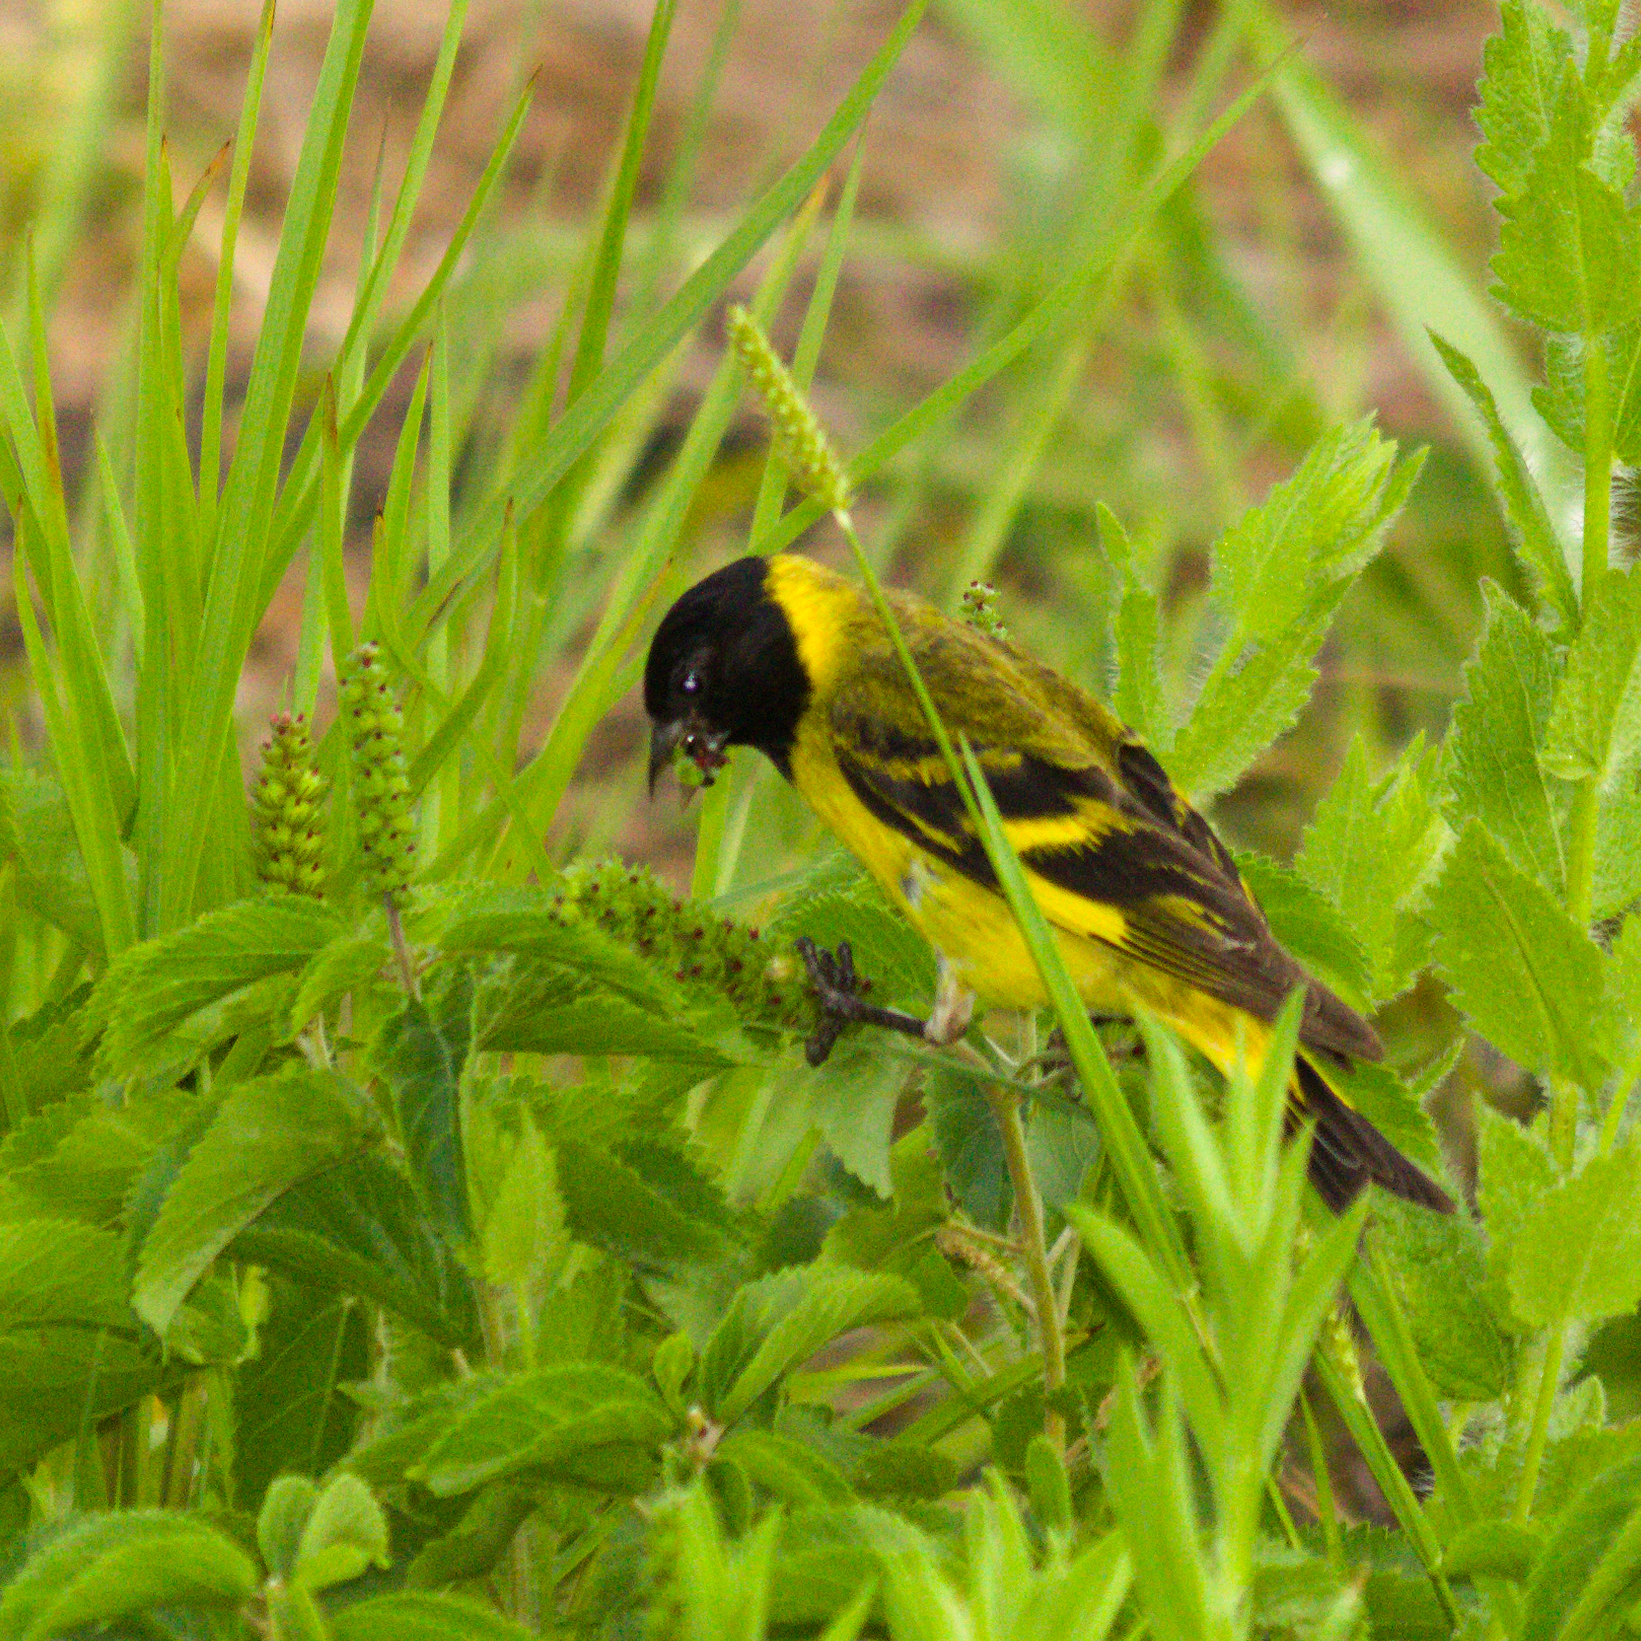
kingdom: Animalia
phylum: Chordata
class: Aves
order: Passeriformes
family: Fringillidae
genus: Spinus
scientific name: Spinus magellanicus
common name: Hooded siskin
